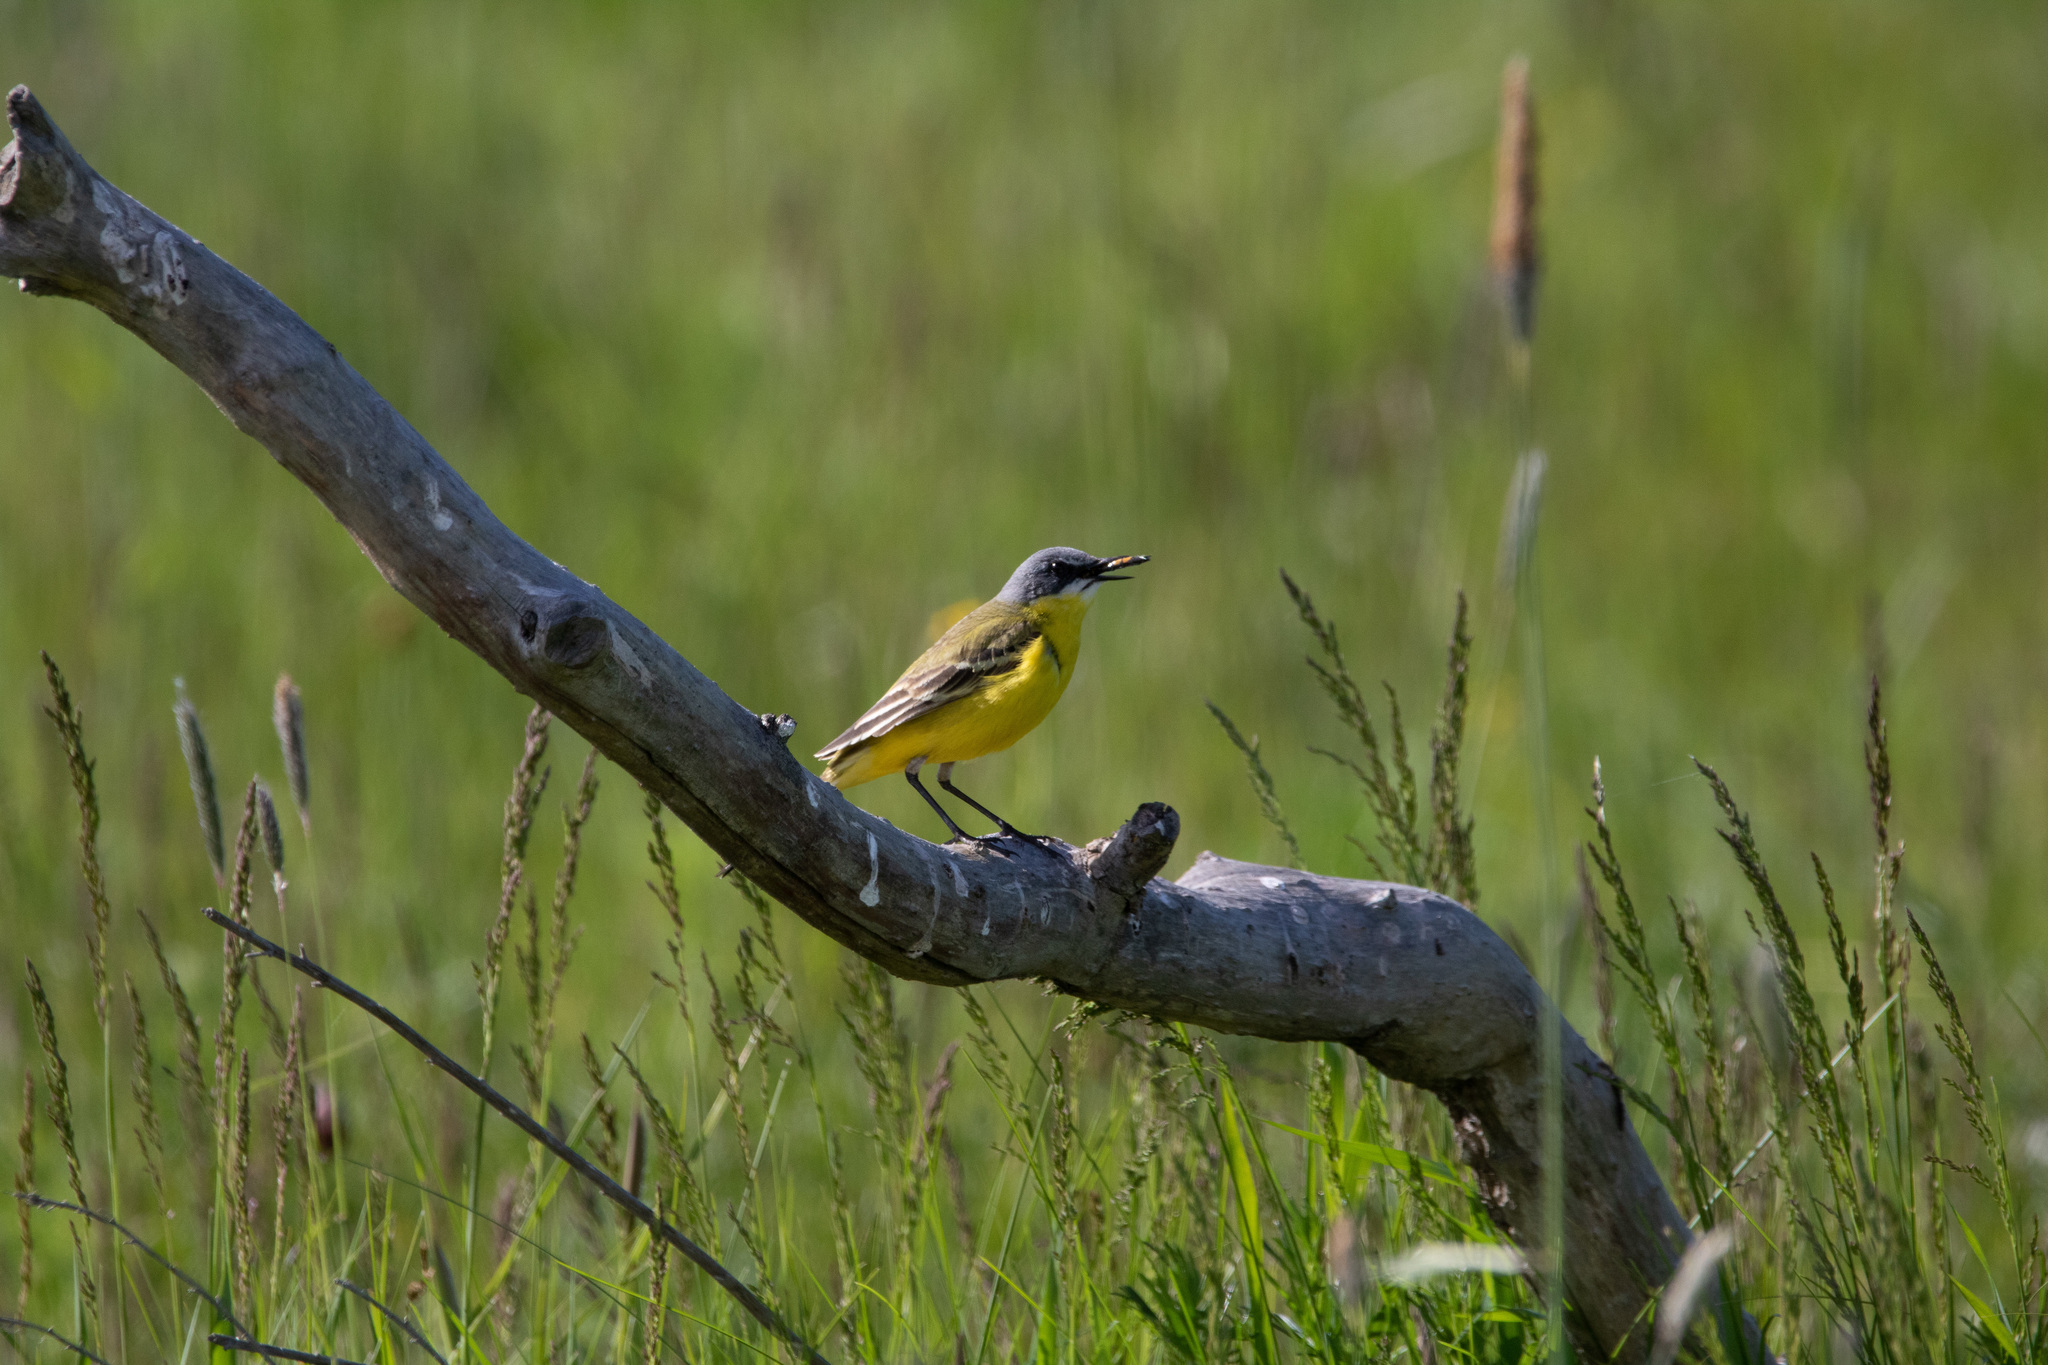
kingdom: Animalia
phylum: Chordata
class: Aves
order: Passeriformes
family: Motacillidae
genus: Motacilla
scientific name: Motacilla flava
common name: Western yellow wagtail
